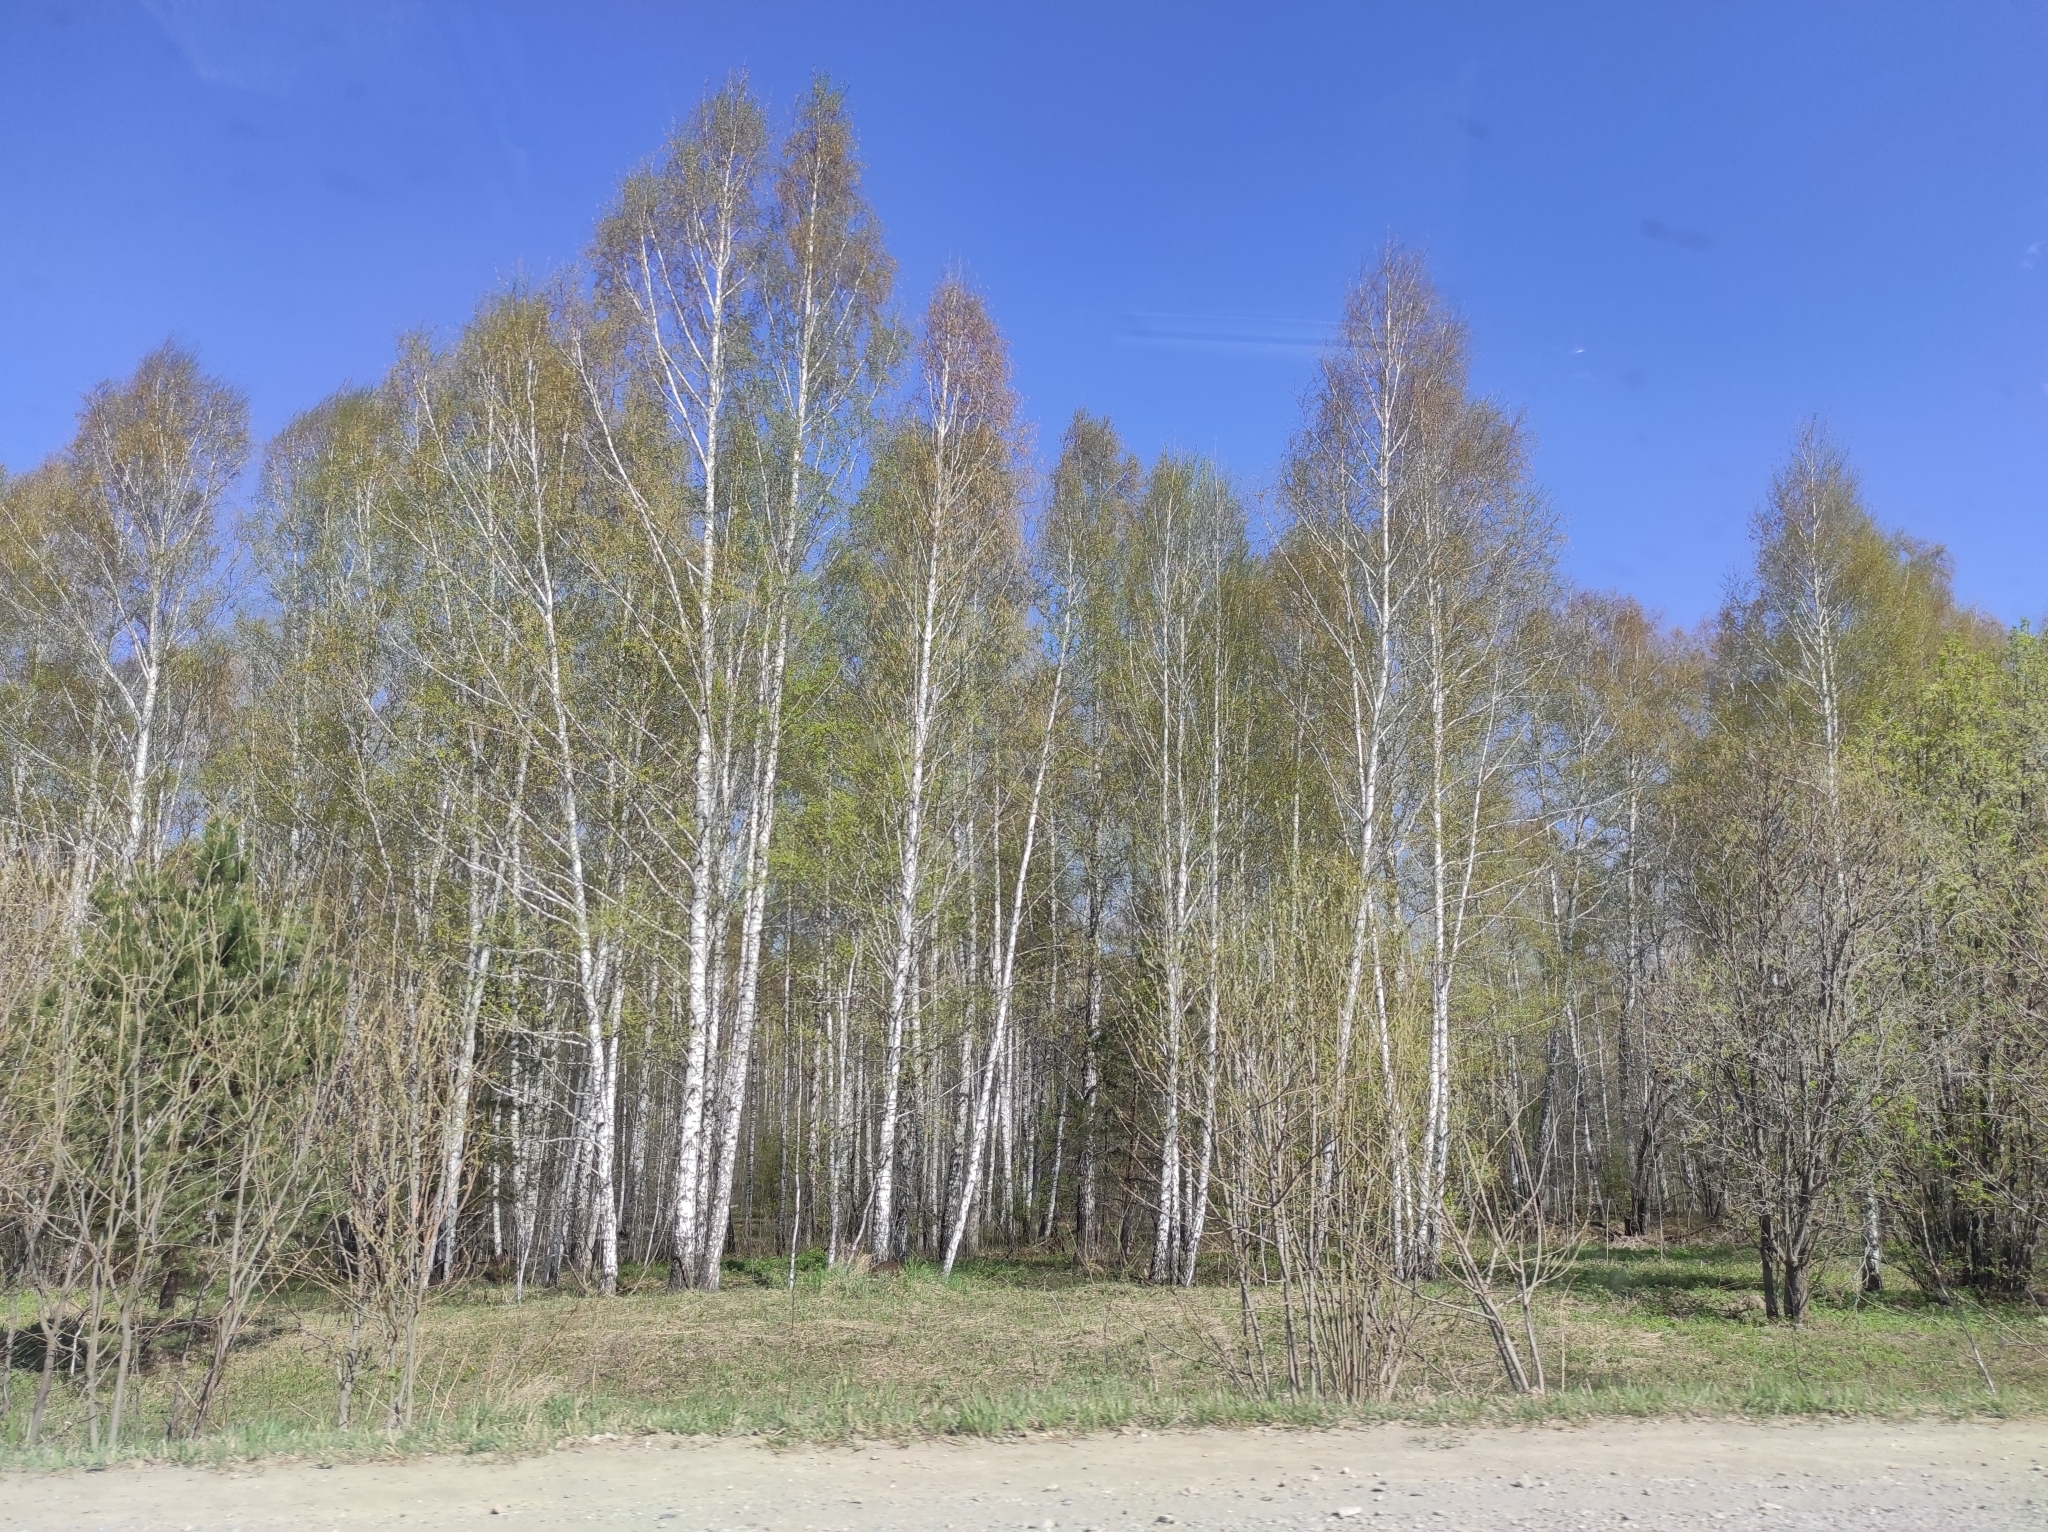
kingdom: Plantae
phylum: Tracheophyta
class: Magnoliopsida
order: Fagales
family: Betulaceae
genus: Betula
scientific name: Betula pendula
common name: Silver birch
